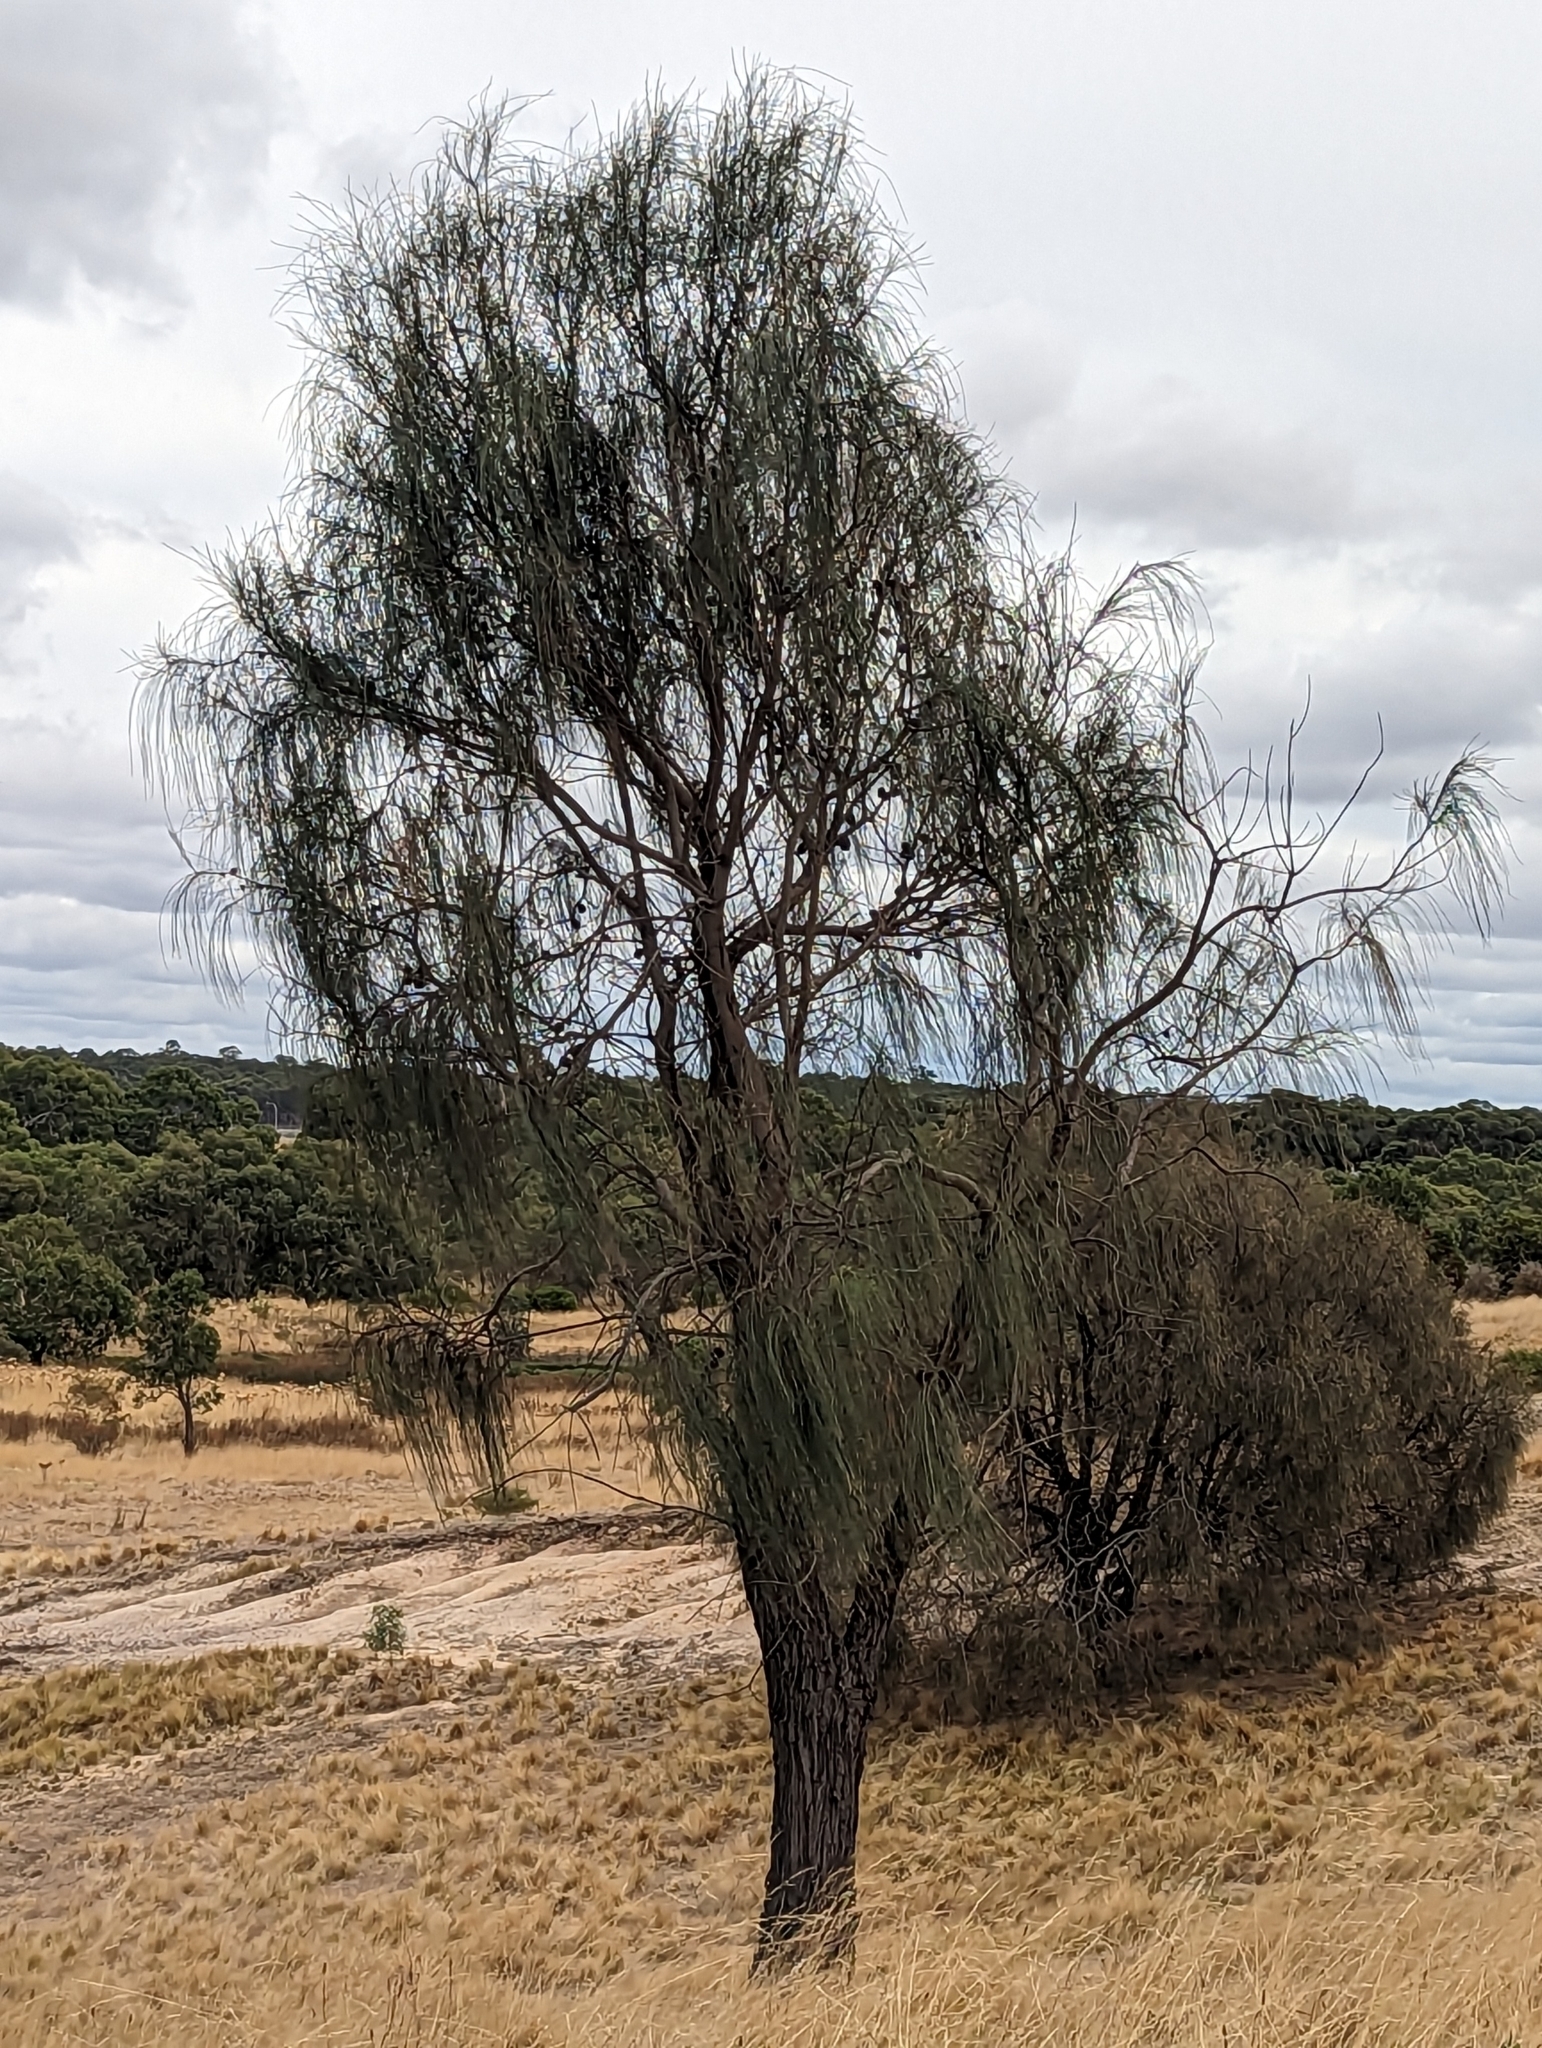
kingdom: Plantae
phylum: Tracheophyta
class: Magnoliopsida
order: Fagales
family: Casuarinaceae
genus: Allocasuarina
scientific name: Allocasuarina verticillata
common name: Drooping she-oak
